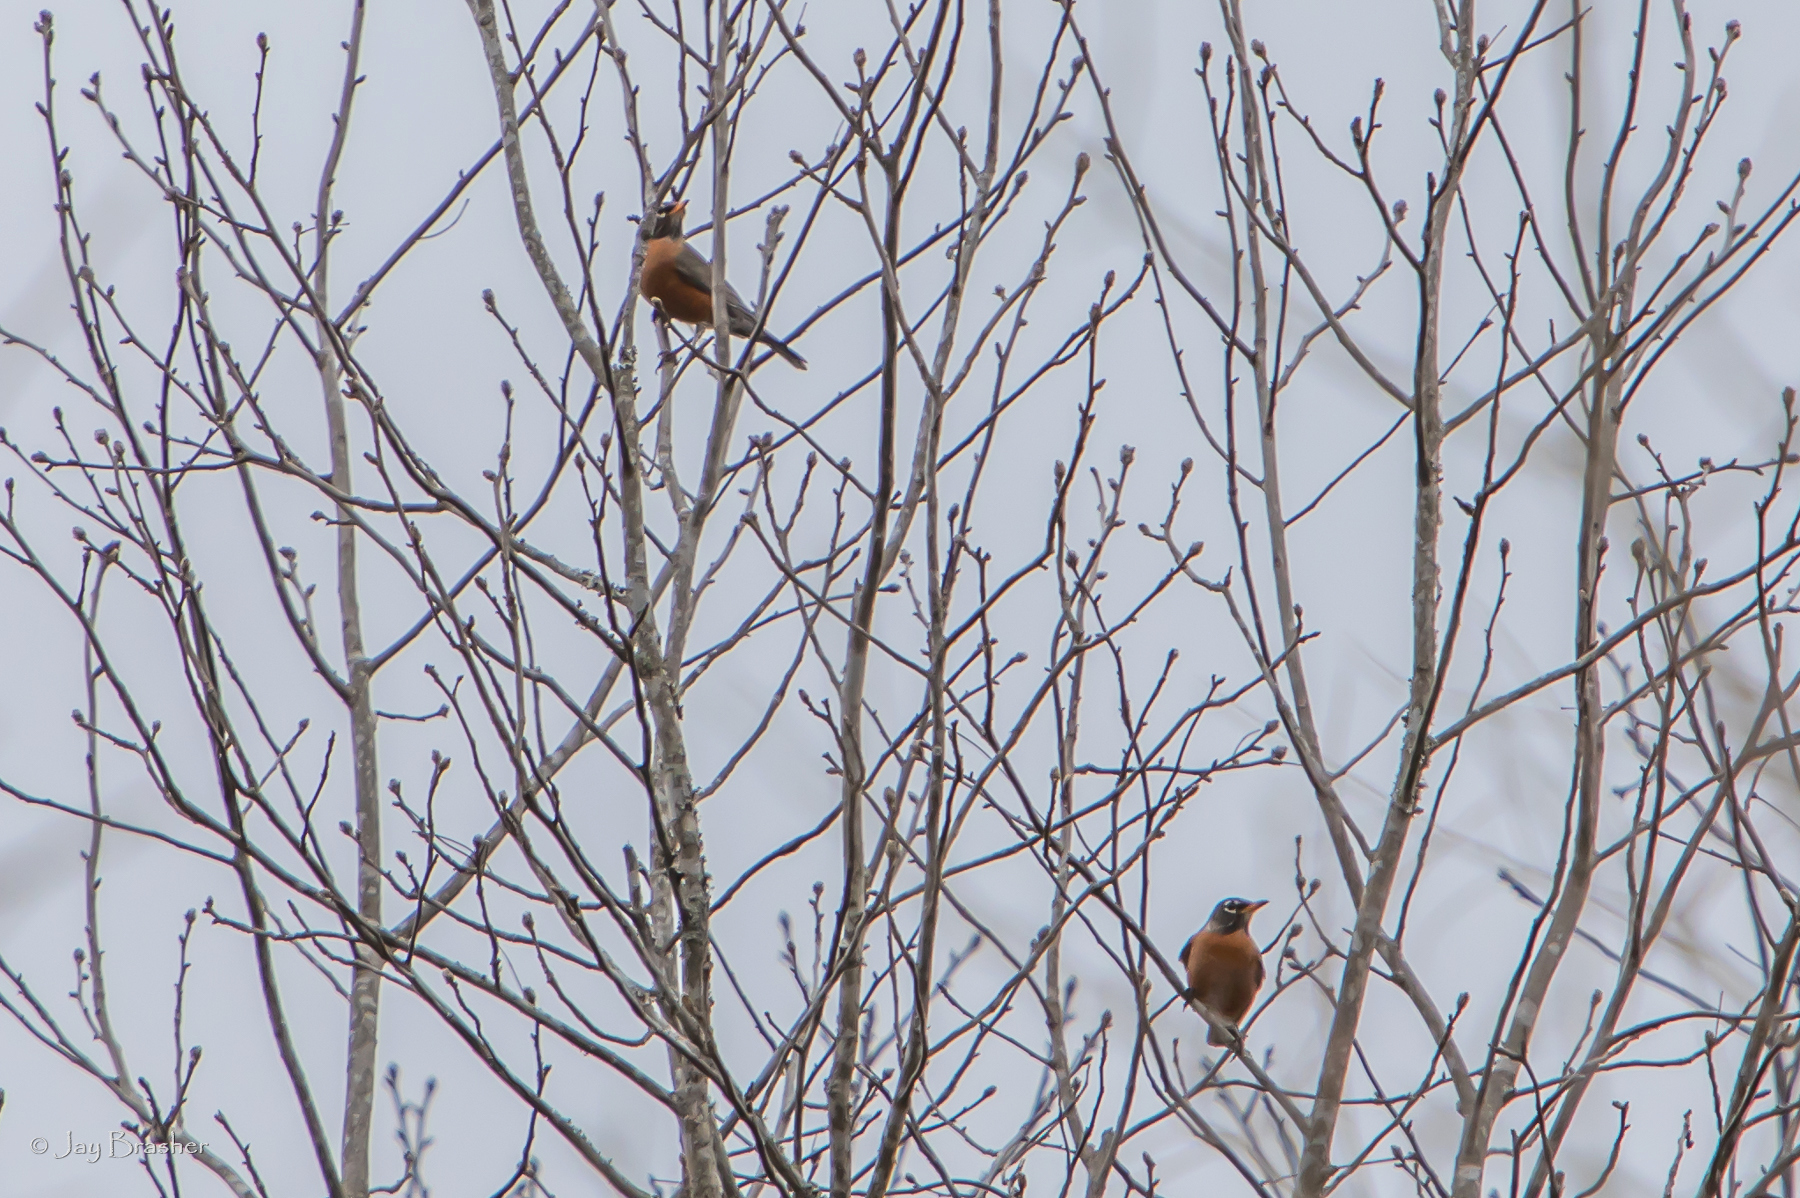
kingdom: Animalia
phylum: Chordata
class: Aves
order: Passeriformes
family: Turdidae
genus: Turdus
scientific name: Turdus migratorius
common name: American robin
